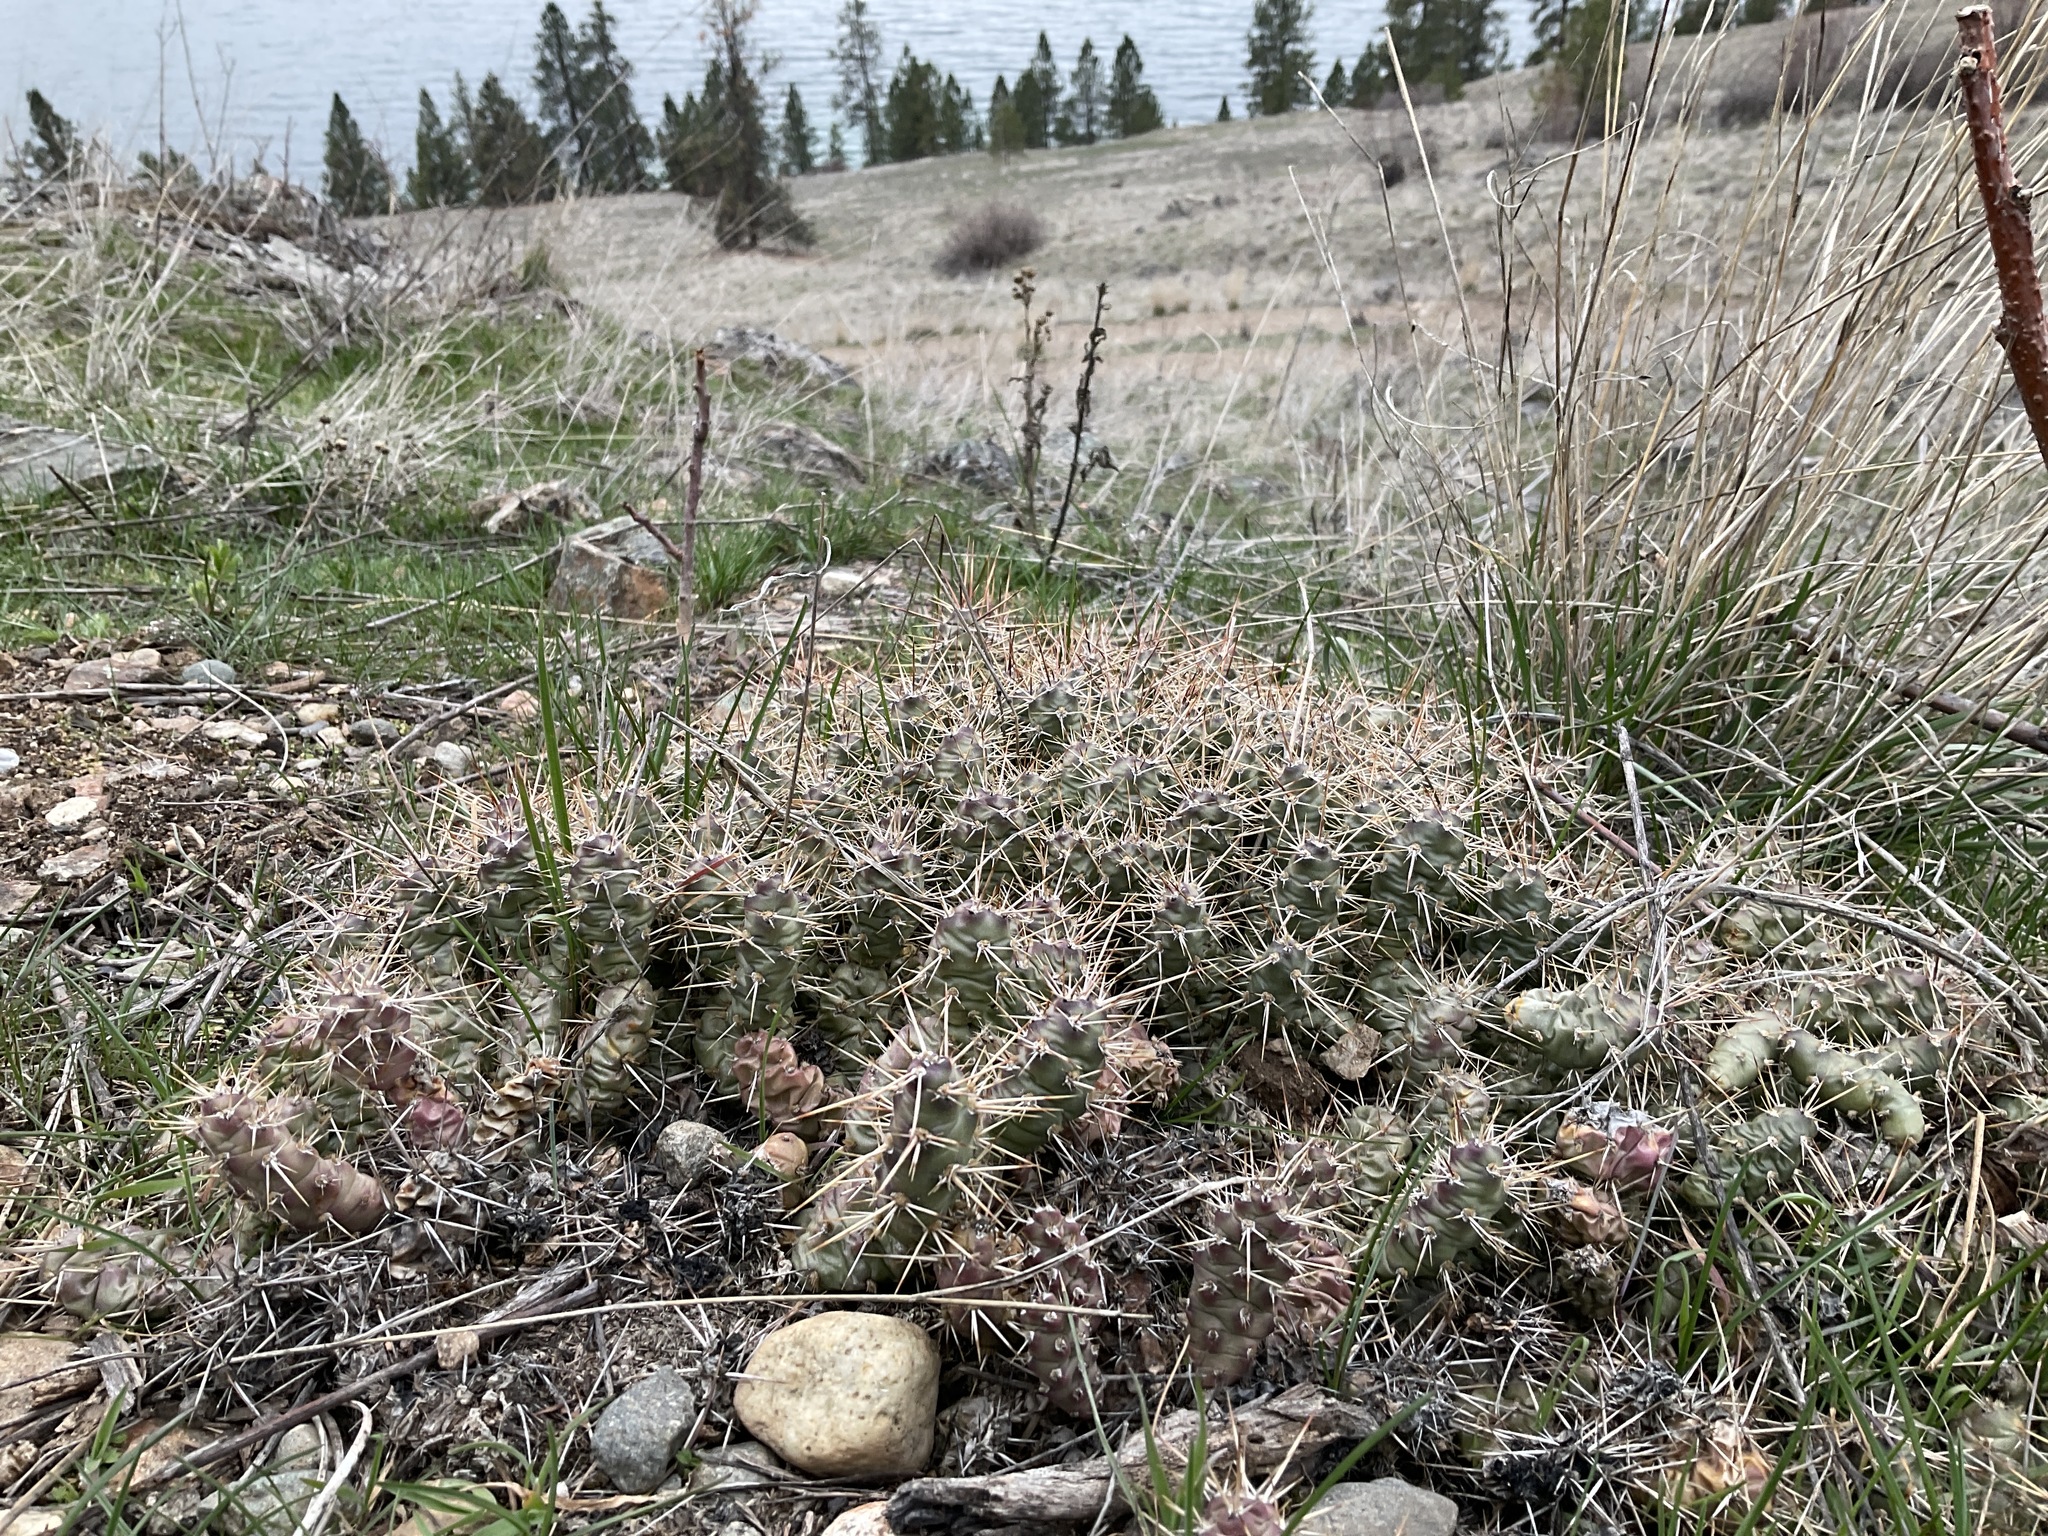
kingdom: Plantae
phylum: Tracheophyta
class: Magnoliopsida
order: Caryophyllales
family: Cactaceae
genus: Opuntia
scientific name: Opuntia fragilis
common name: Brittle cactus
